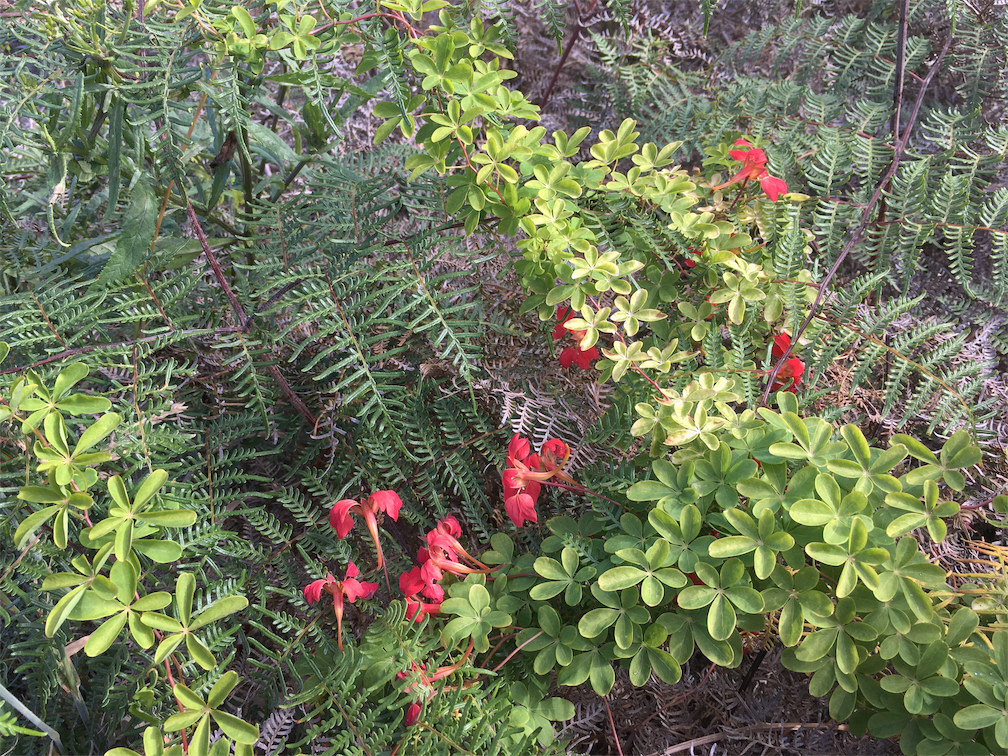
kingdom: Plantae
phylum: Tracheophyta
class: Magnoliopsida
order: Brassicales
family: Tropaeolaceae
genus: Tropaeolum
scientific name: Tropaeolum speciosum
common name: Flame nasturtium
